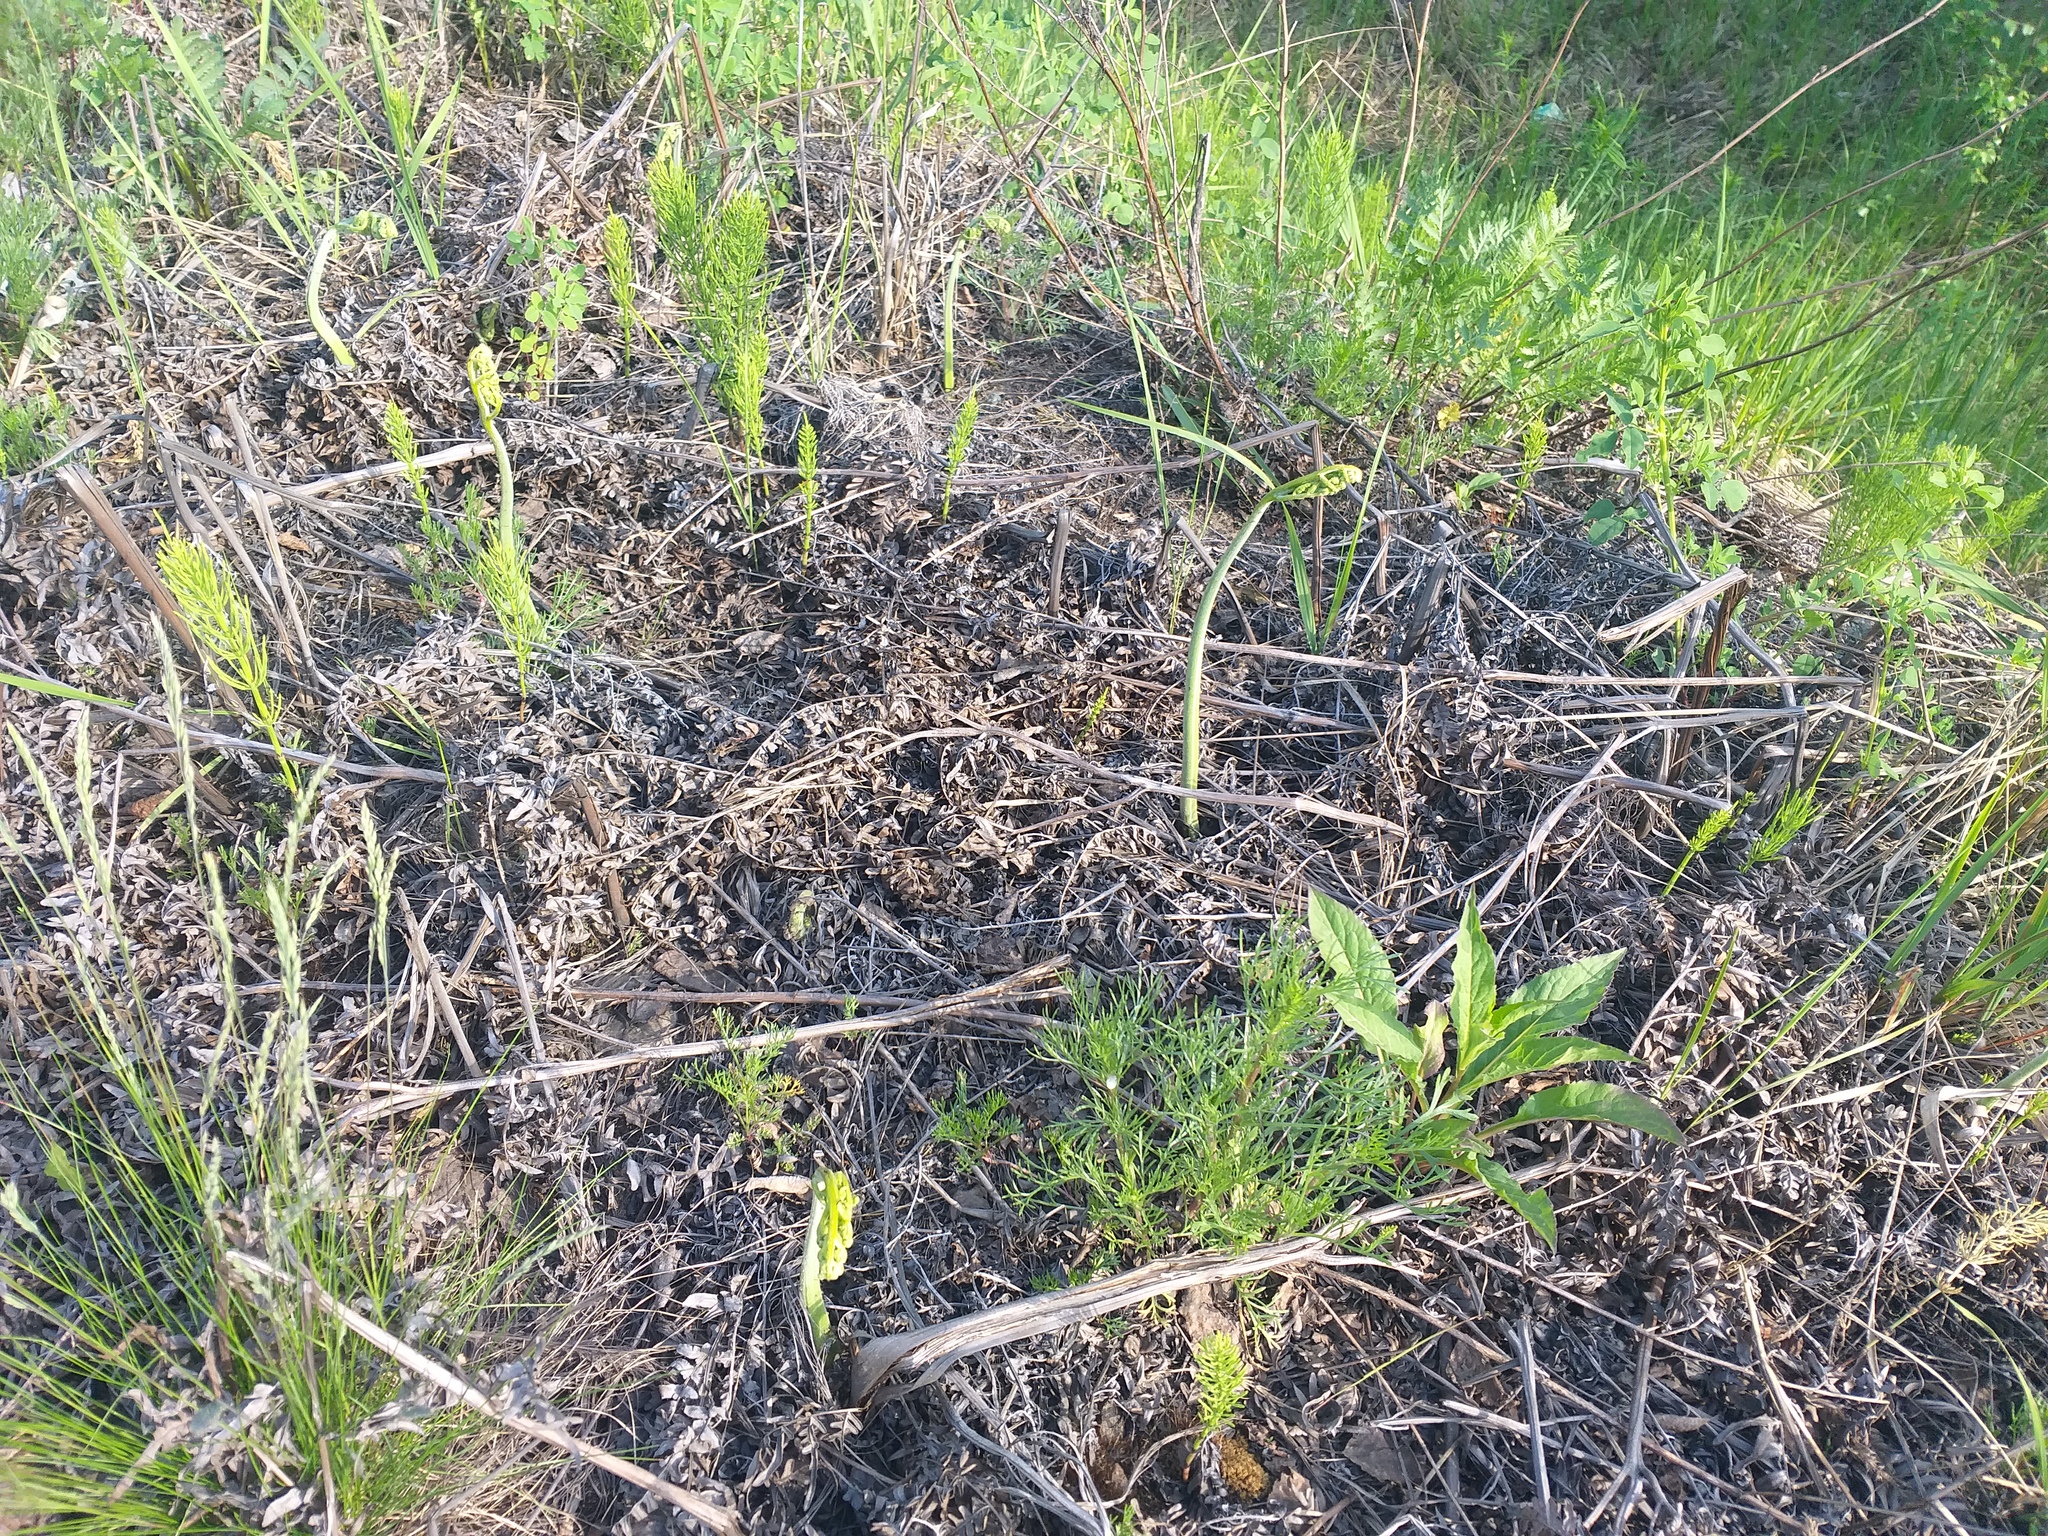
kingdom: Plantae
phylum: Tracheophyta
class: Polypodiopsida
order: Polypodiales
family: Dennstaedtiaceae
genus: Pteridium
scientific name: Pteridium aquilinum
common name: Bracken
